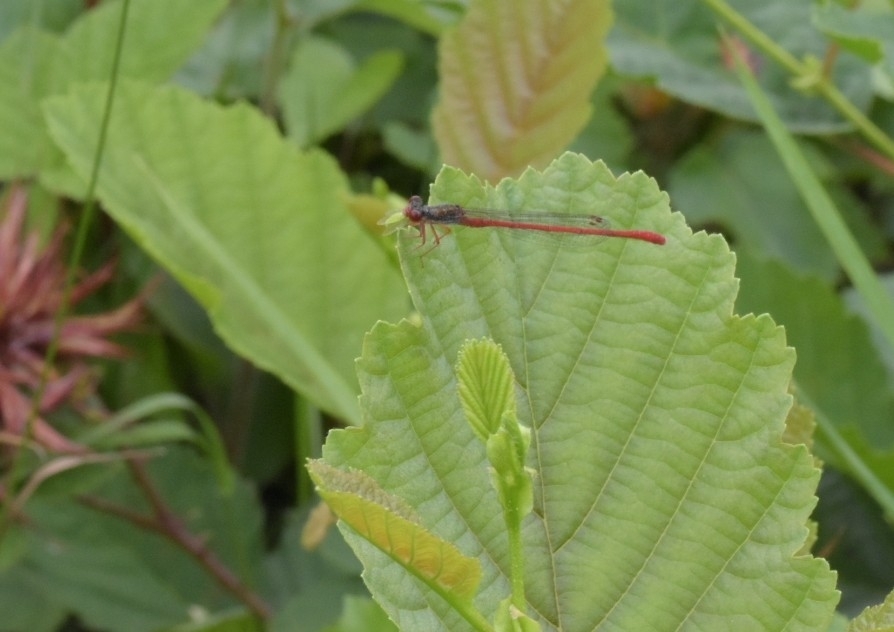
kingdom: Animalia
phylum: Arthropoda
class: Insecta
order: Odonata
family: Coenagrionidae
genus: Ceriagrion
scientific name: Ceriagrion tenellum
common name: Small red damselfly
